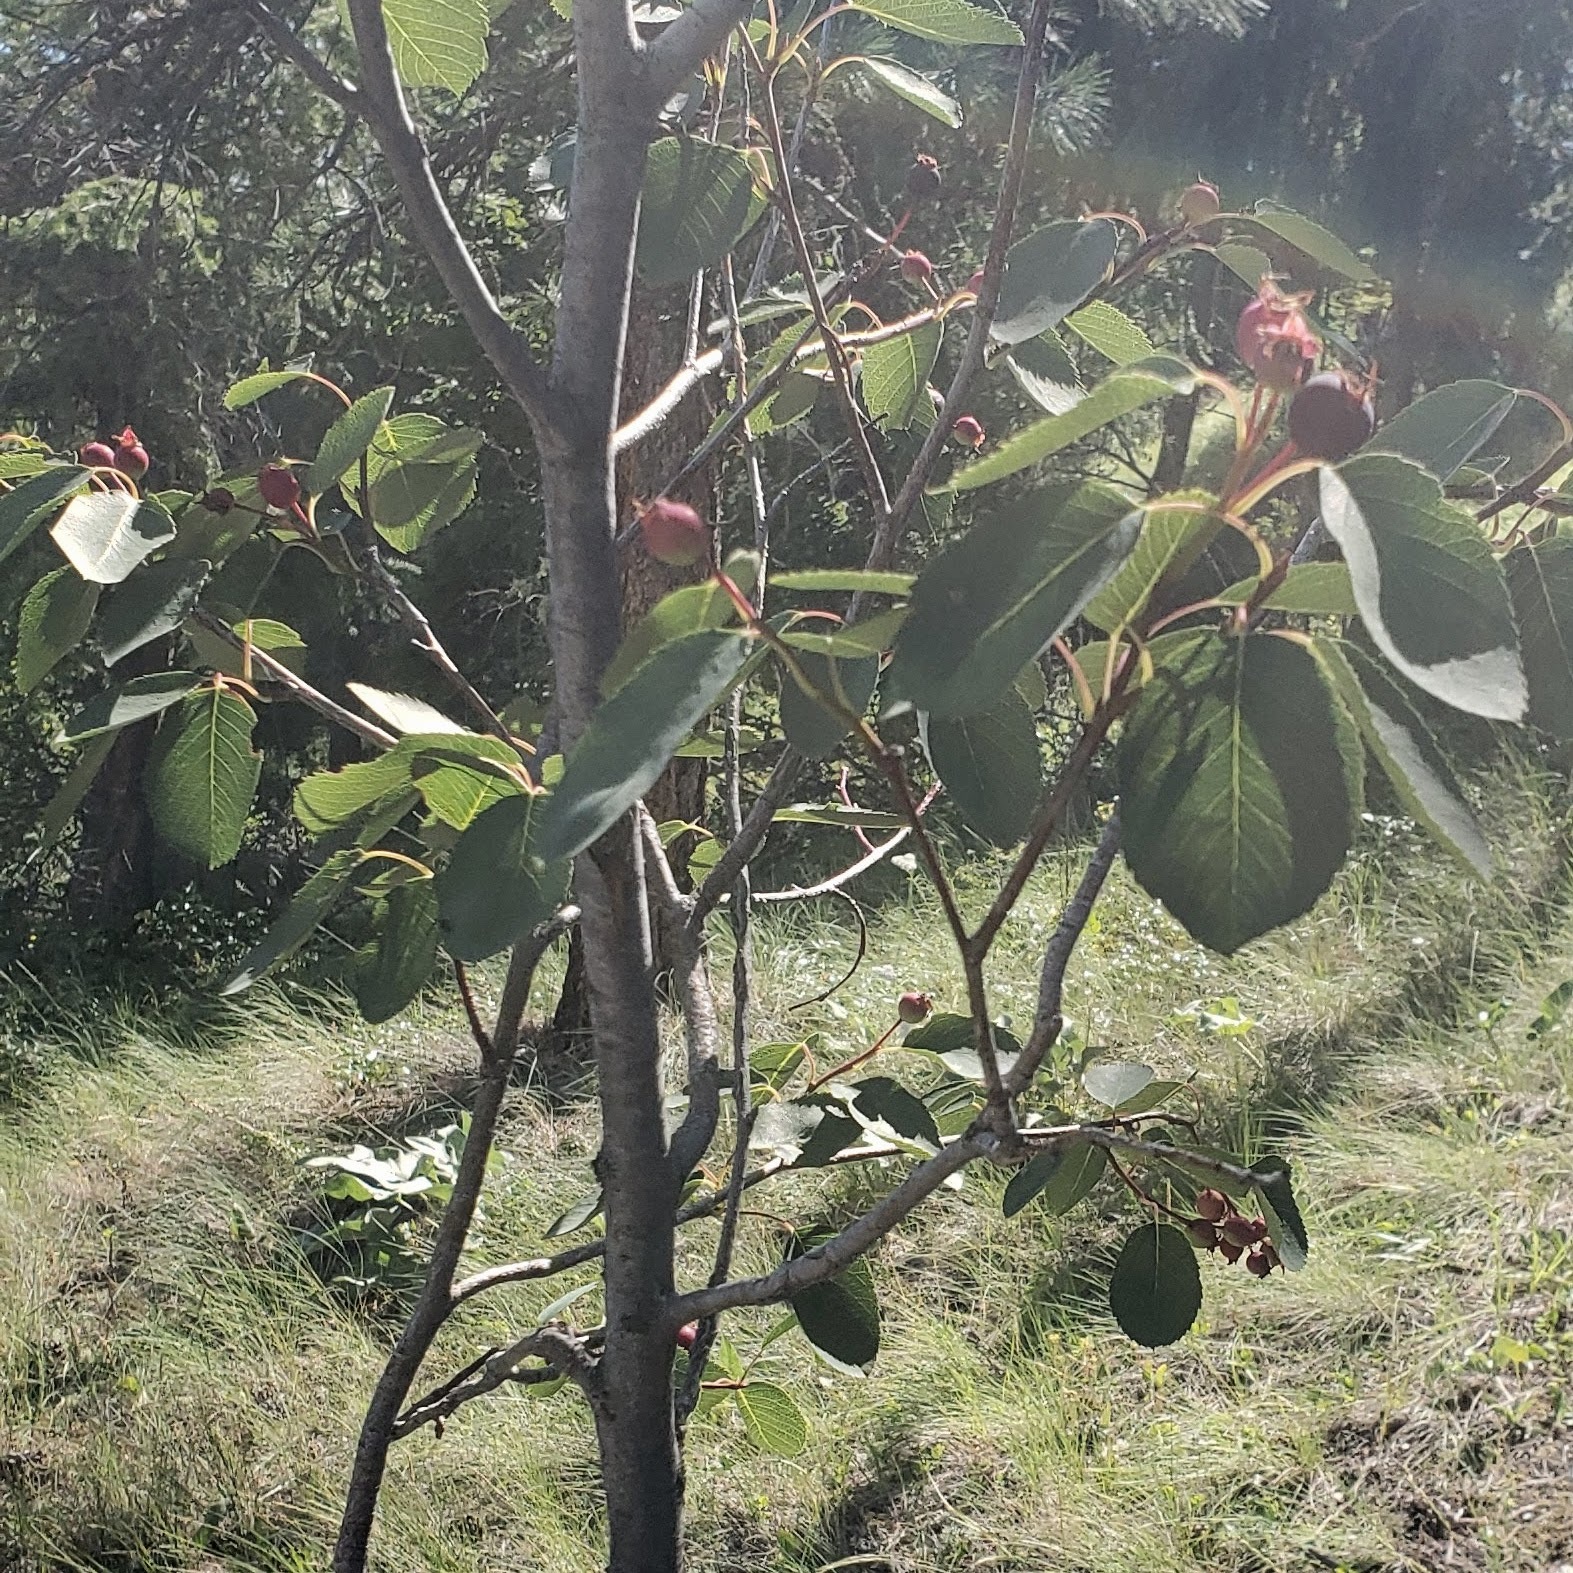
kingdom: Plantae
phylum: Tracheophyta
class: Magnoliopsida
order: Rosales
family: Rosaceae
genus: Amelanchier
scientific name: Amelanchier alnifolia
